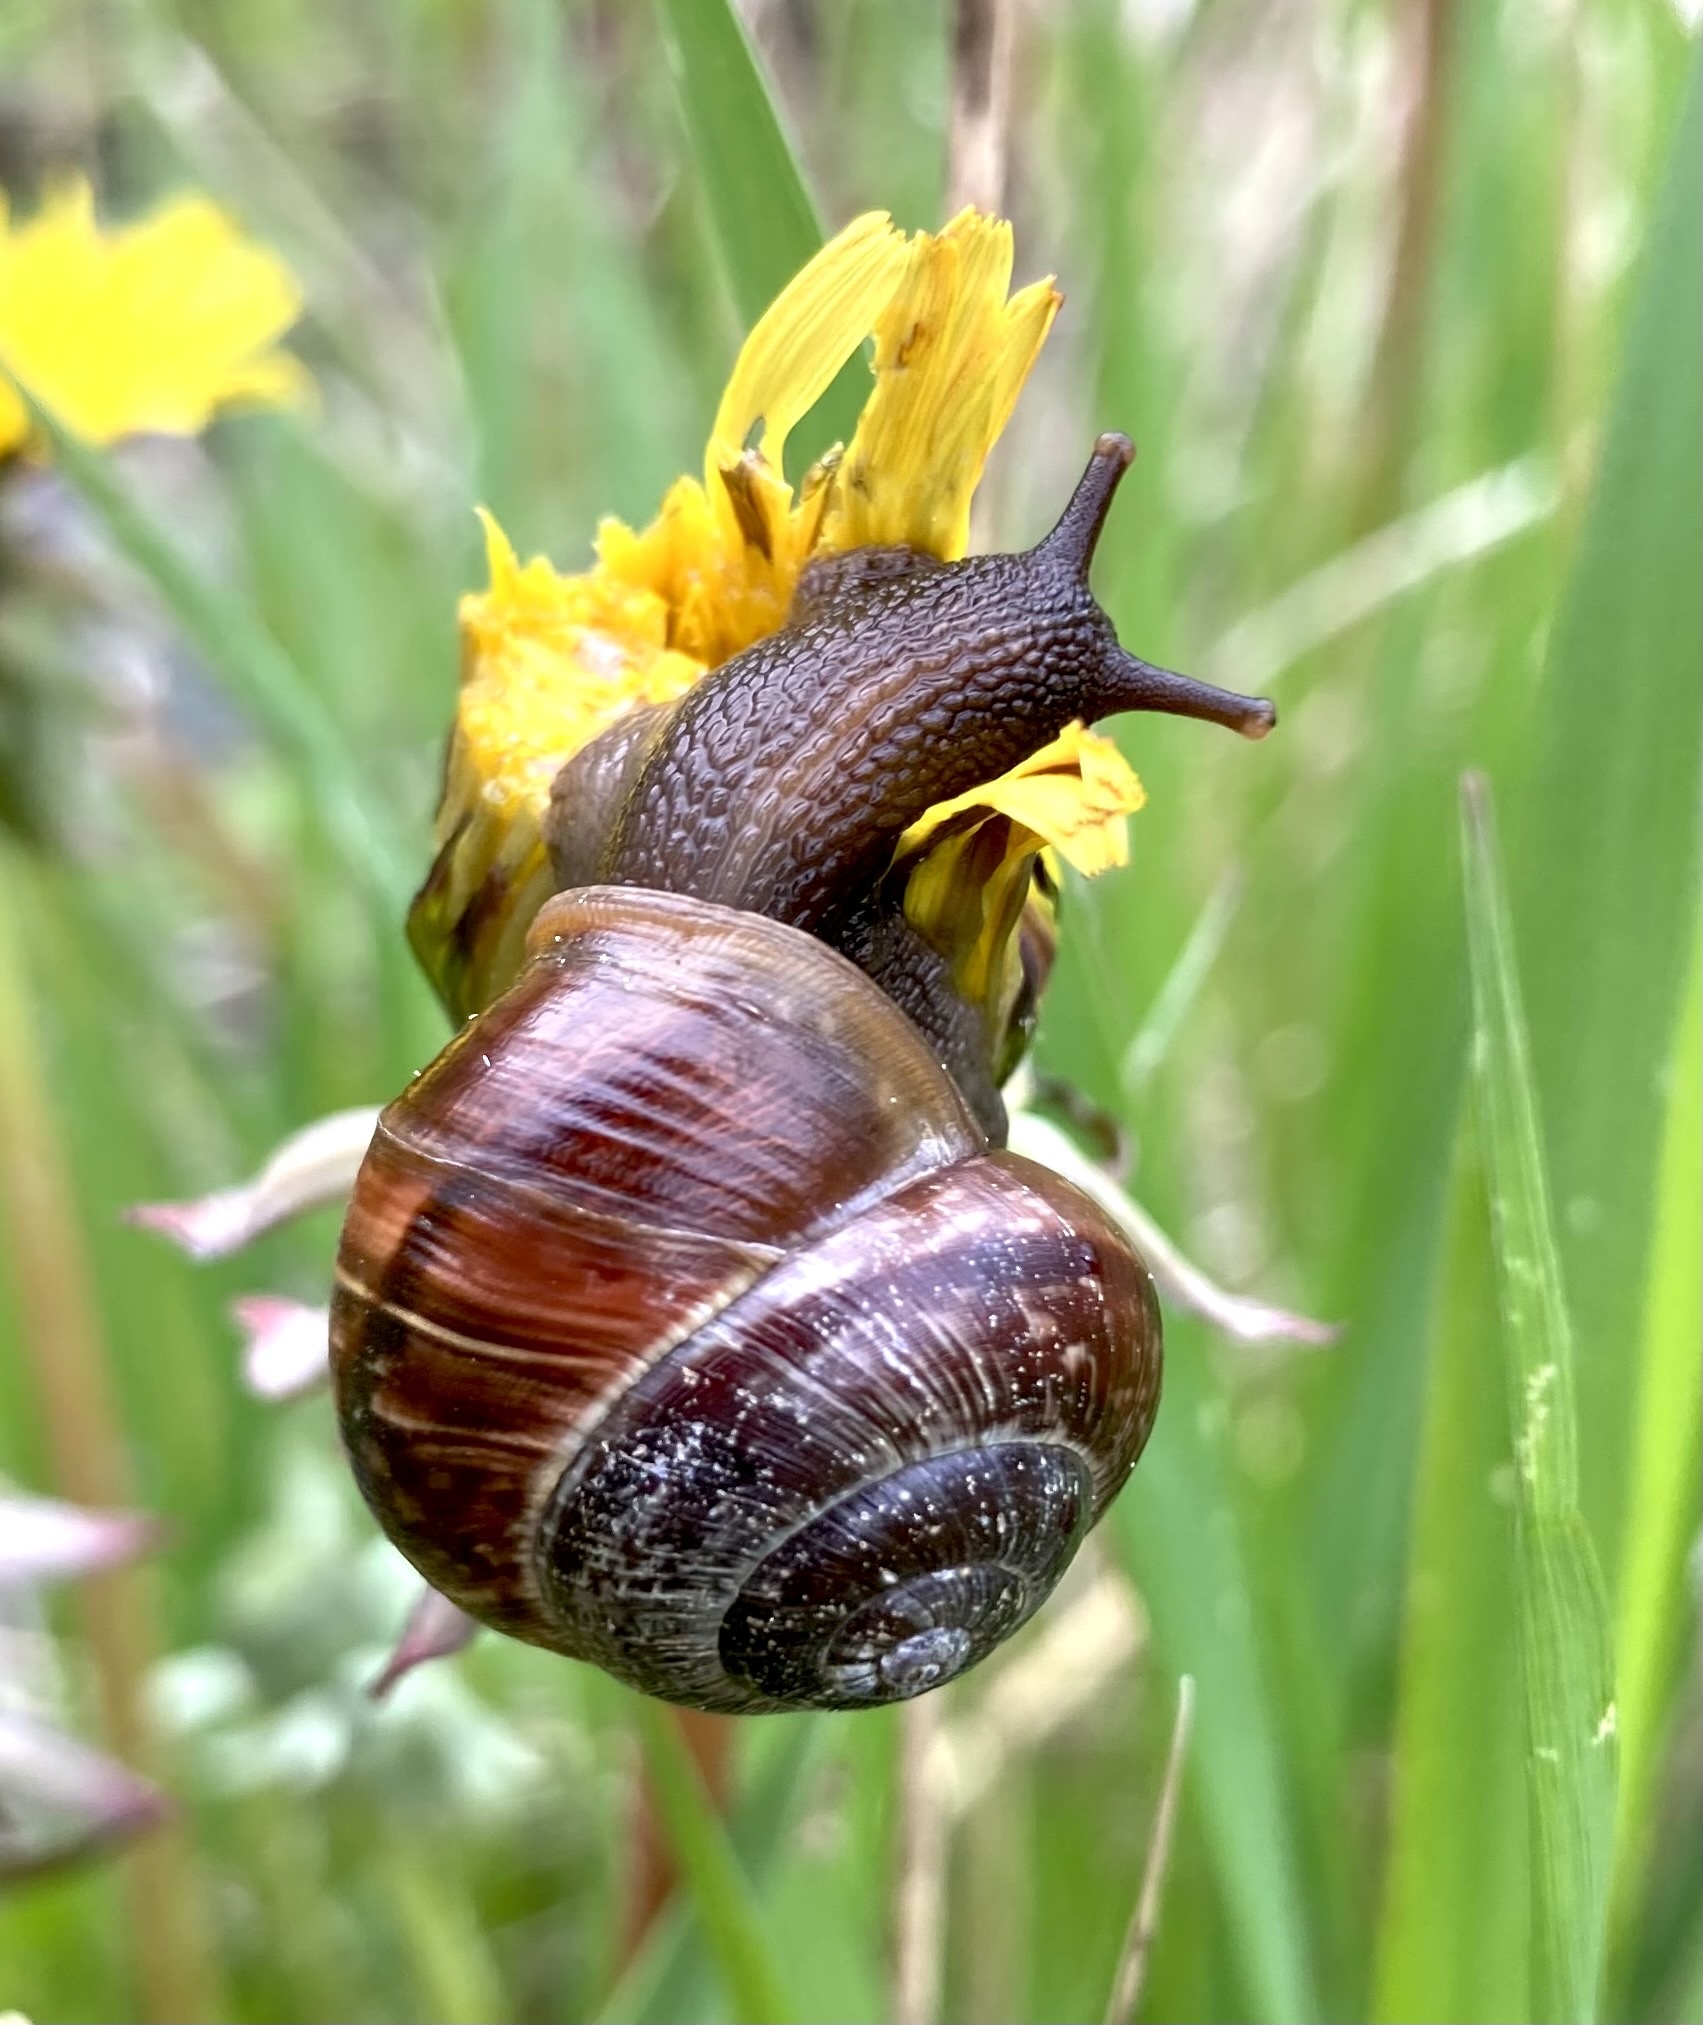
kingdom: Animalia
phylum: Mollusca
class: Gastropoda
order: Stylommatophora
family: Helicidae
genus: Arianta
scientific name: Arianta arbustorum
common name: Copse snail
